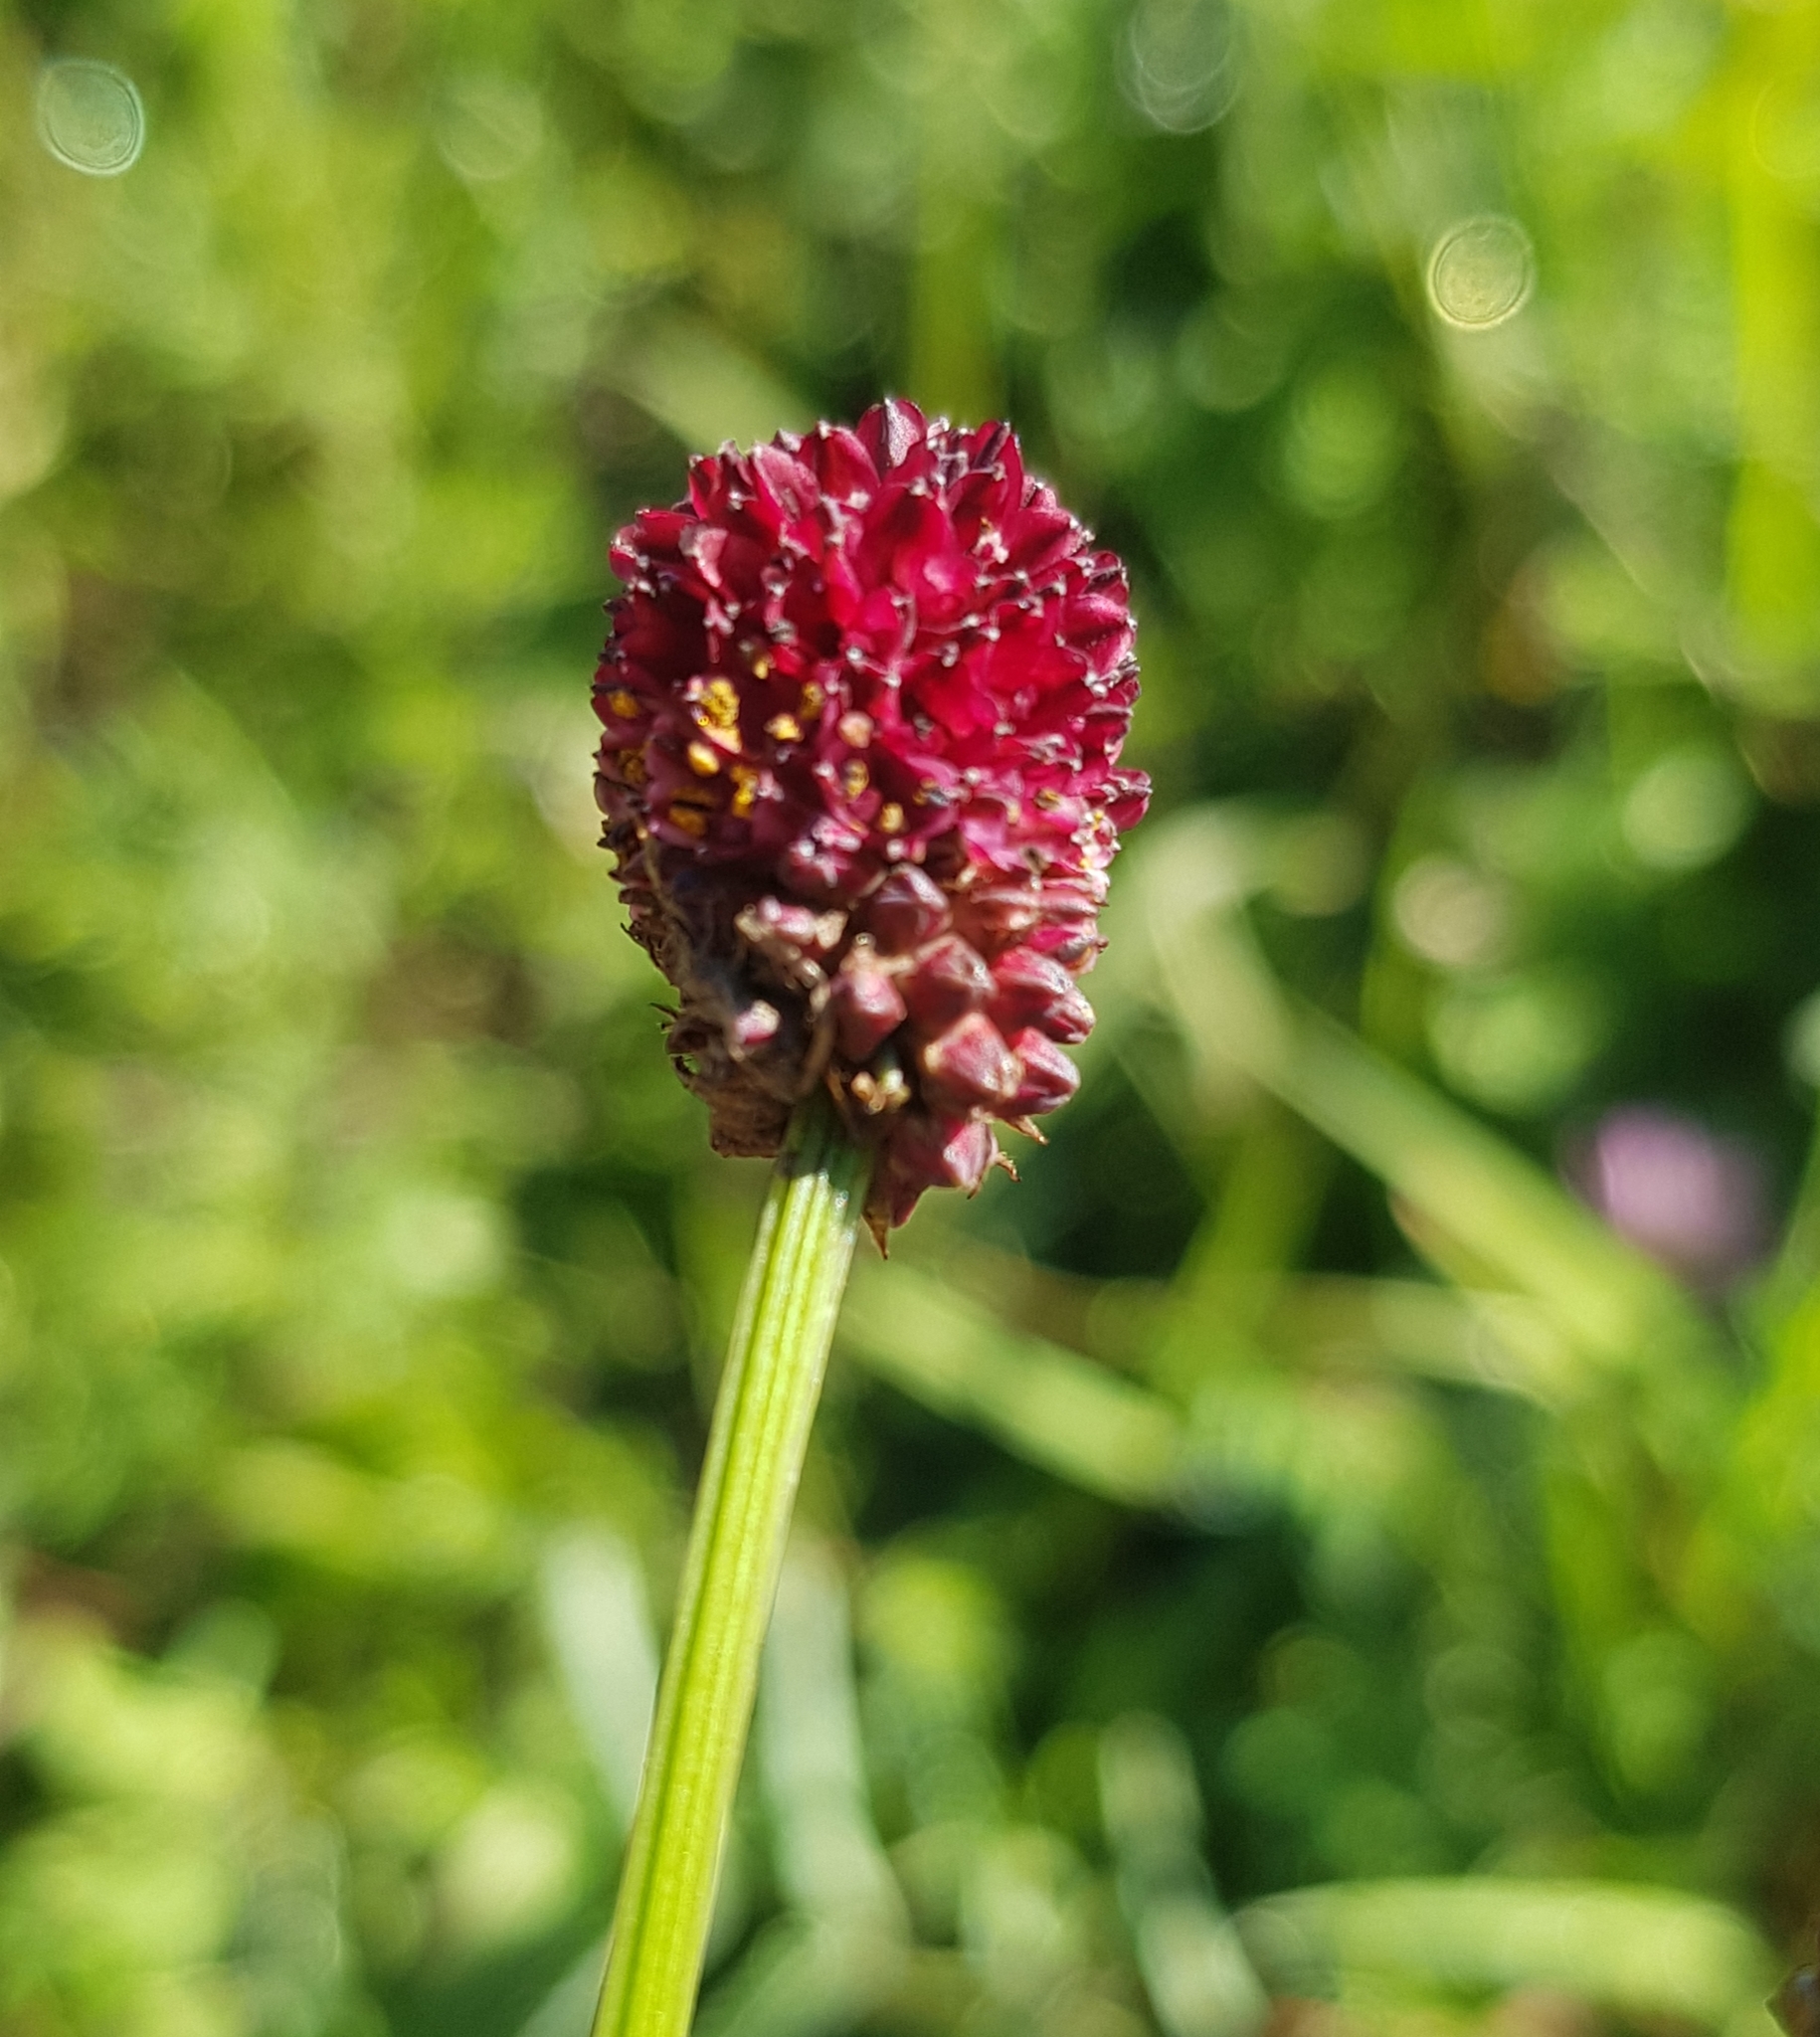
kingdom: Plantae
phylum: Tracheophyta
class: Magnoliopsida
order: Rosales
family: Rosaceae
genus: Sanguisorba
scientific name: Sanguisorba officinalis
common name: Great burnet
